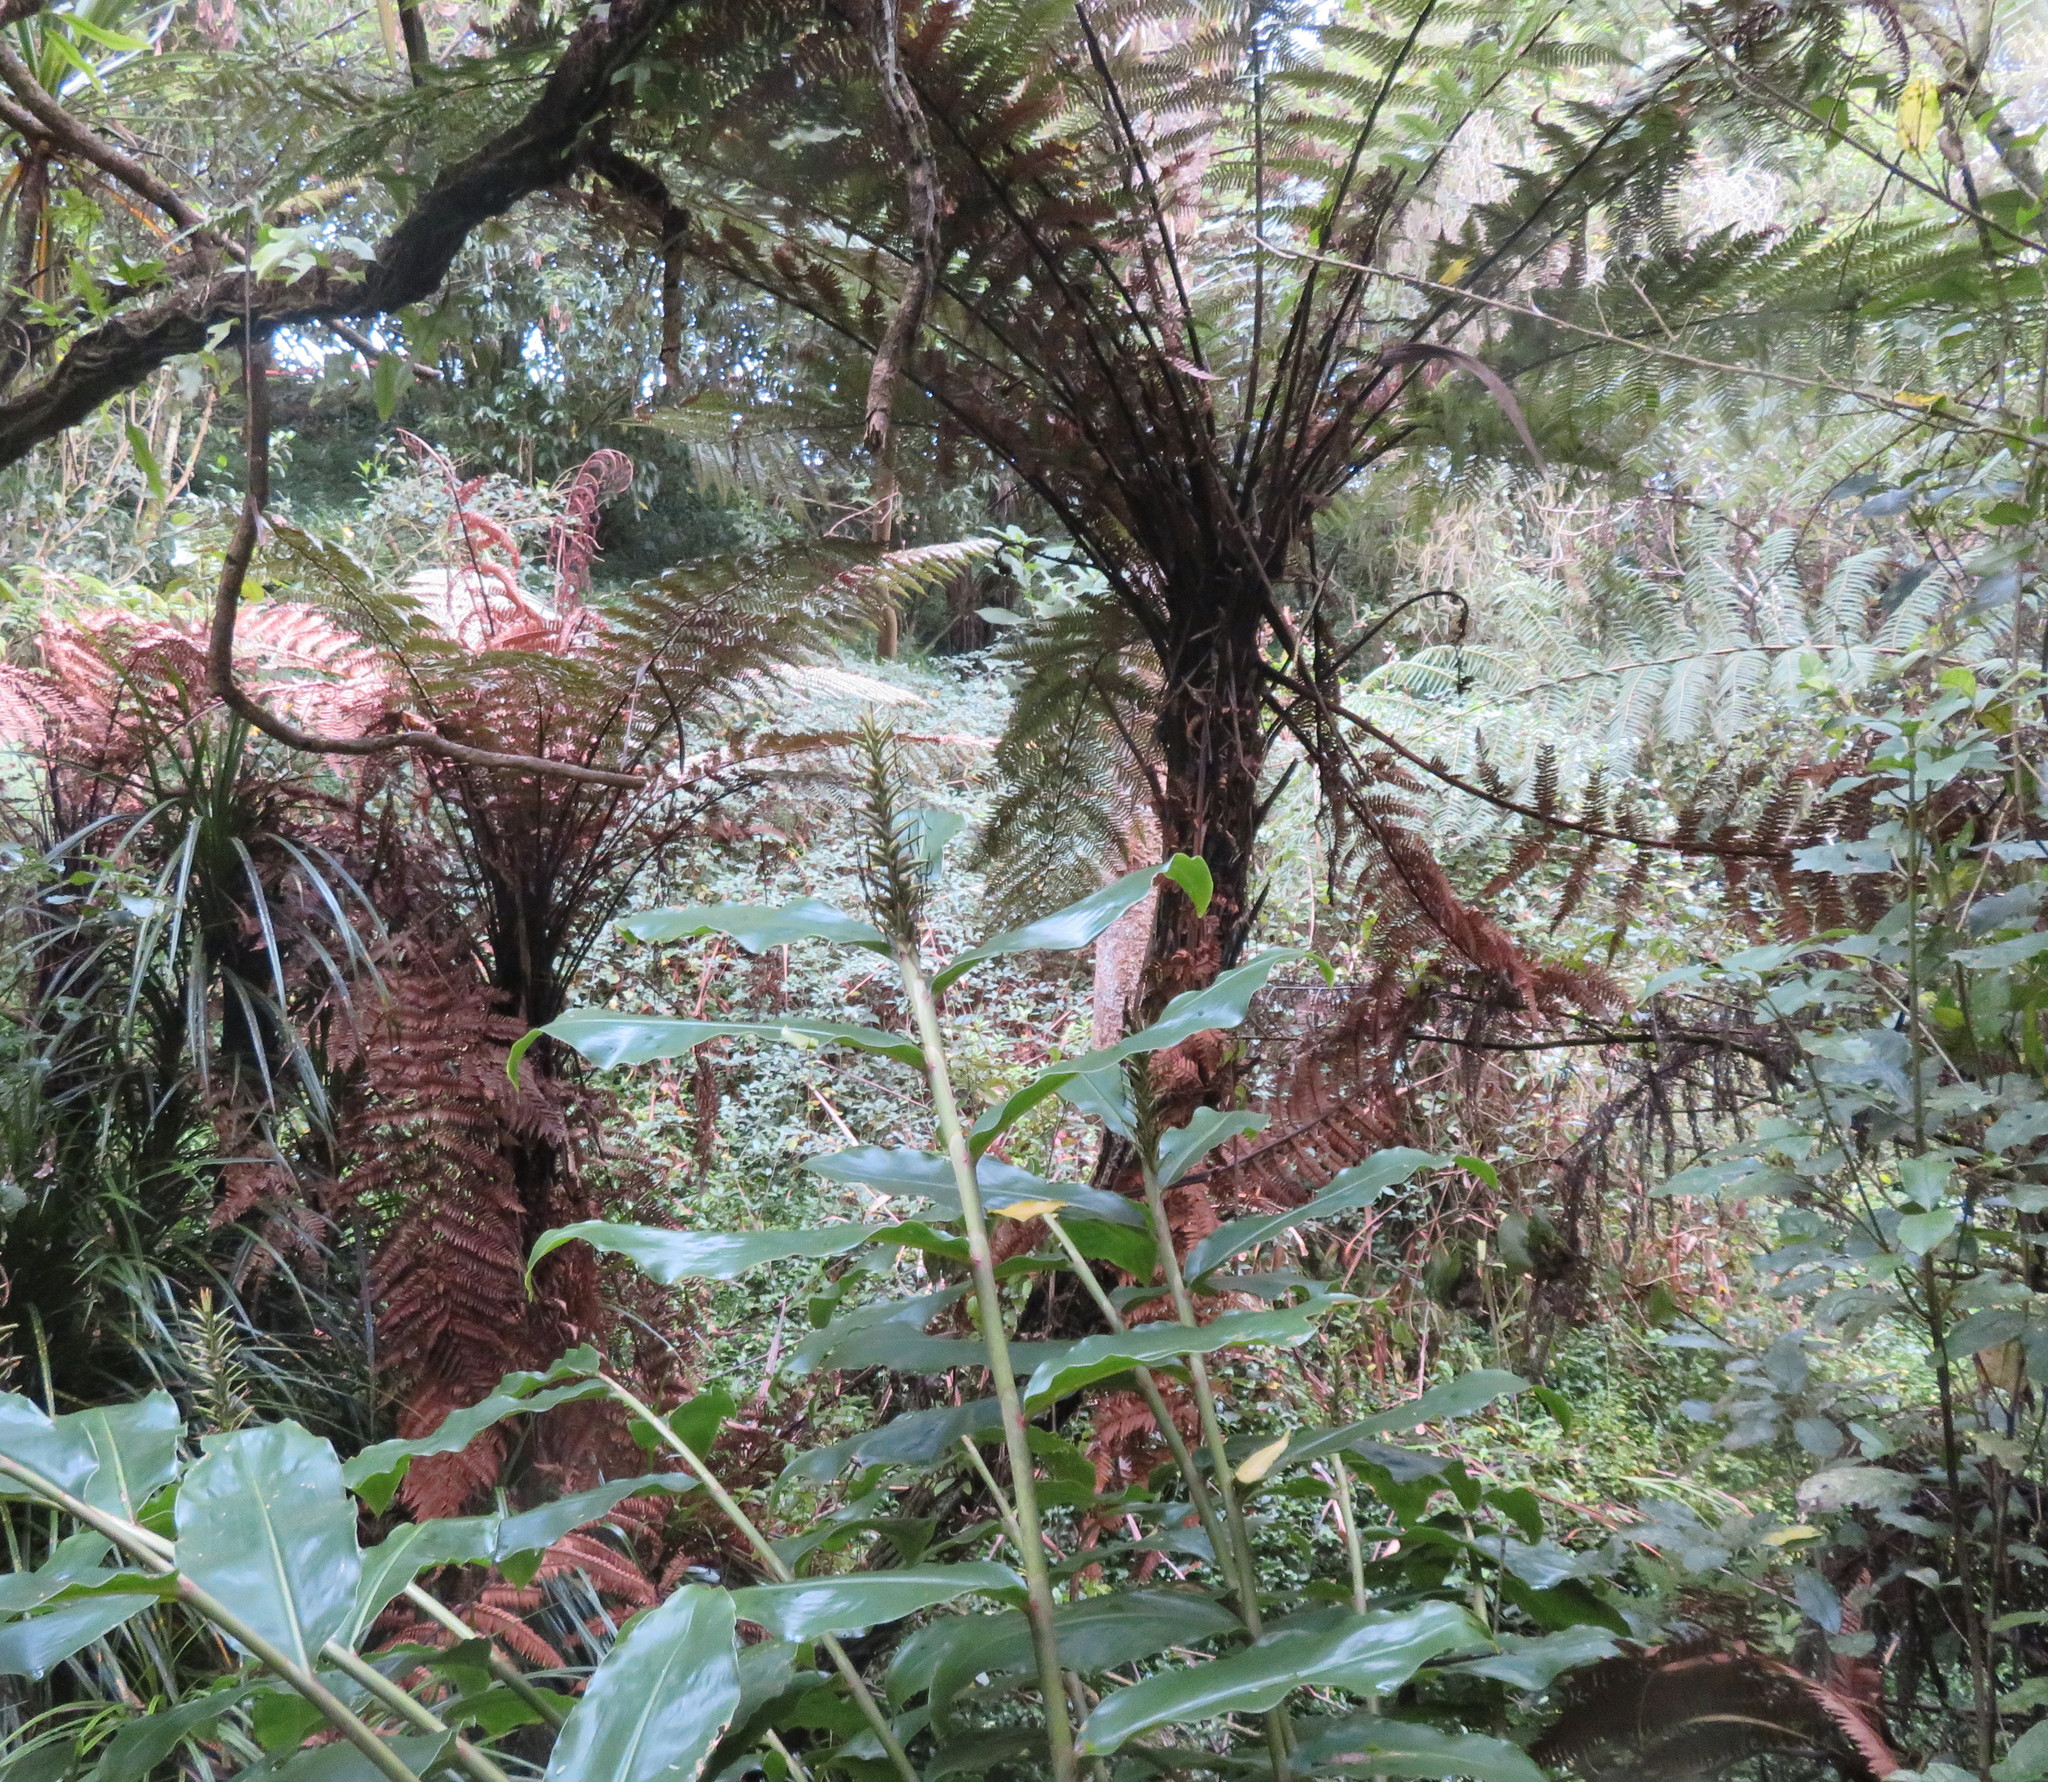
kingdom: Plantae
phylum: Tracheophyta
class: Polypodiopsida
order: Cyatheales
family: Dicksoniaceae
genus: Dicksonia
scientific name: Dicksonia squarrosa
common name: Hard treefern
